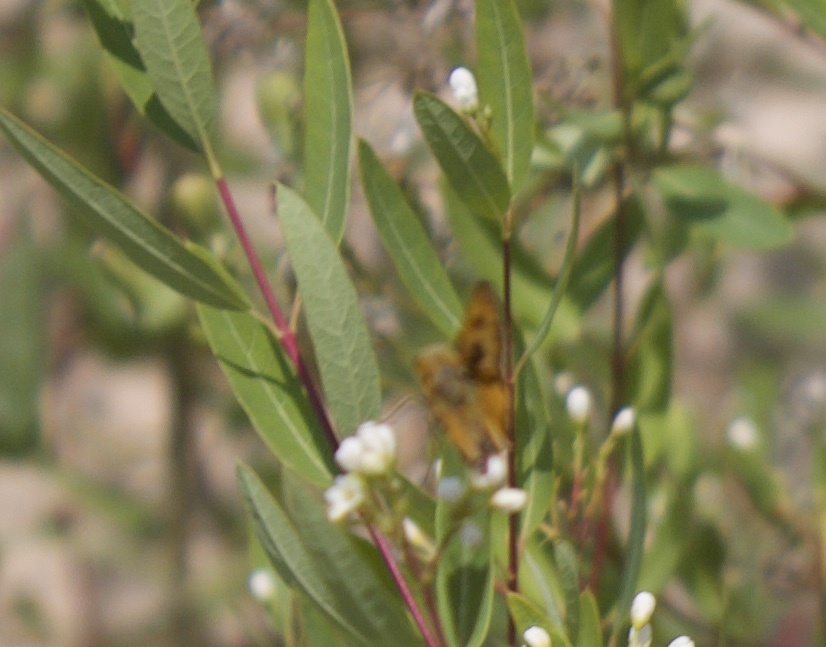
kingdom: Animalia
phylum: Arthropoda
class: Insecta
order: Lepidoptera
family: Hesperiidae
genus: Hylephila
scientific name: Hylephila phyleus
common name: Fiery skipper
